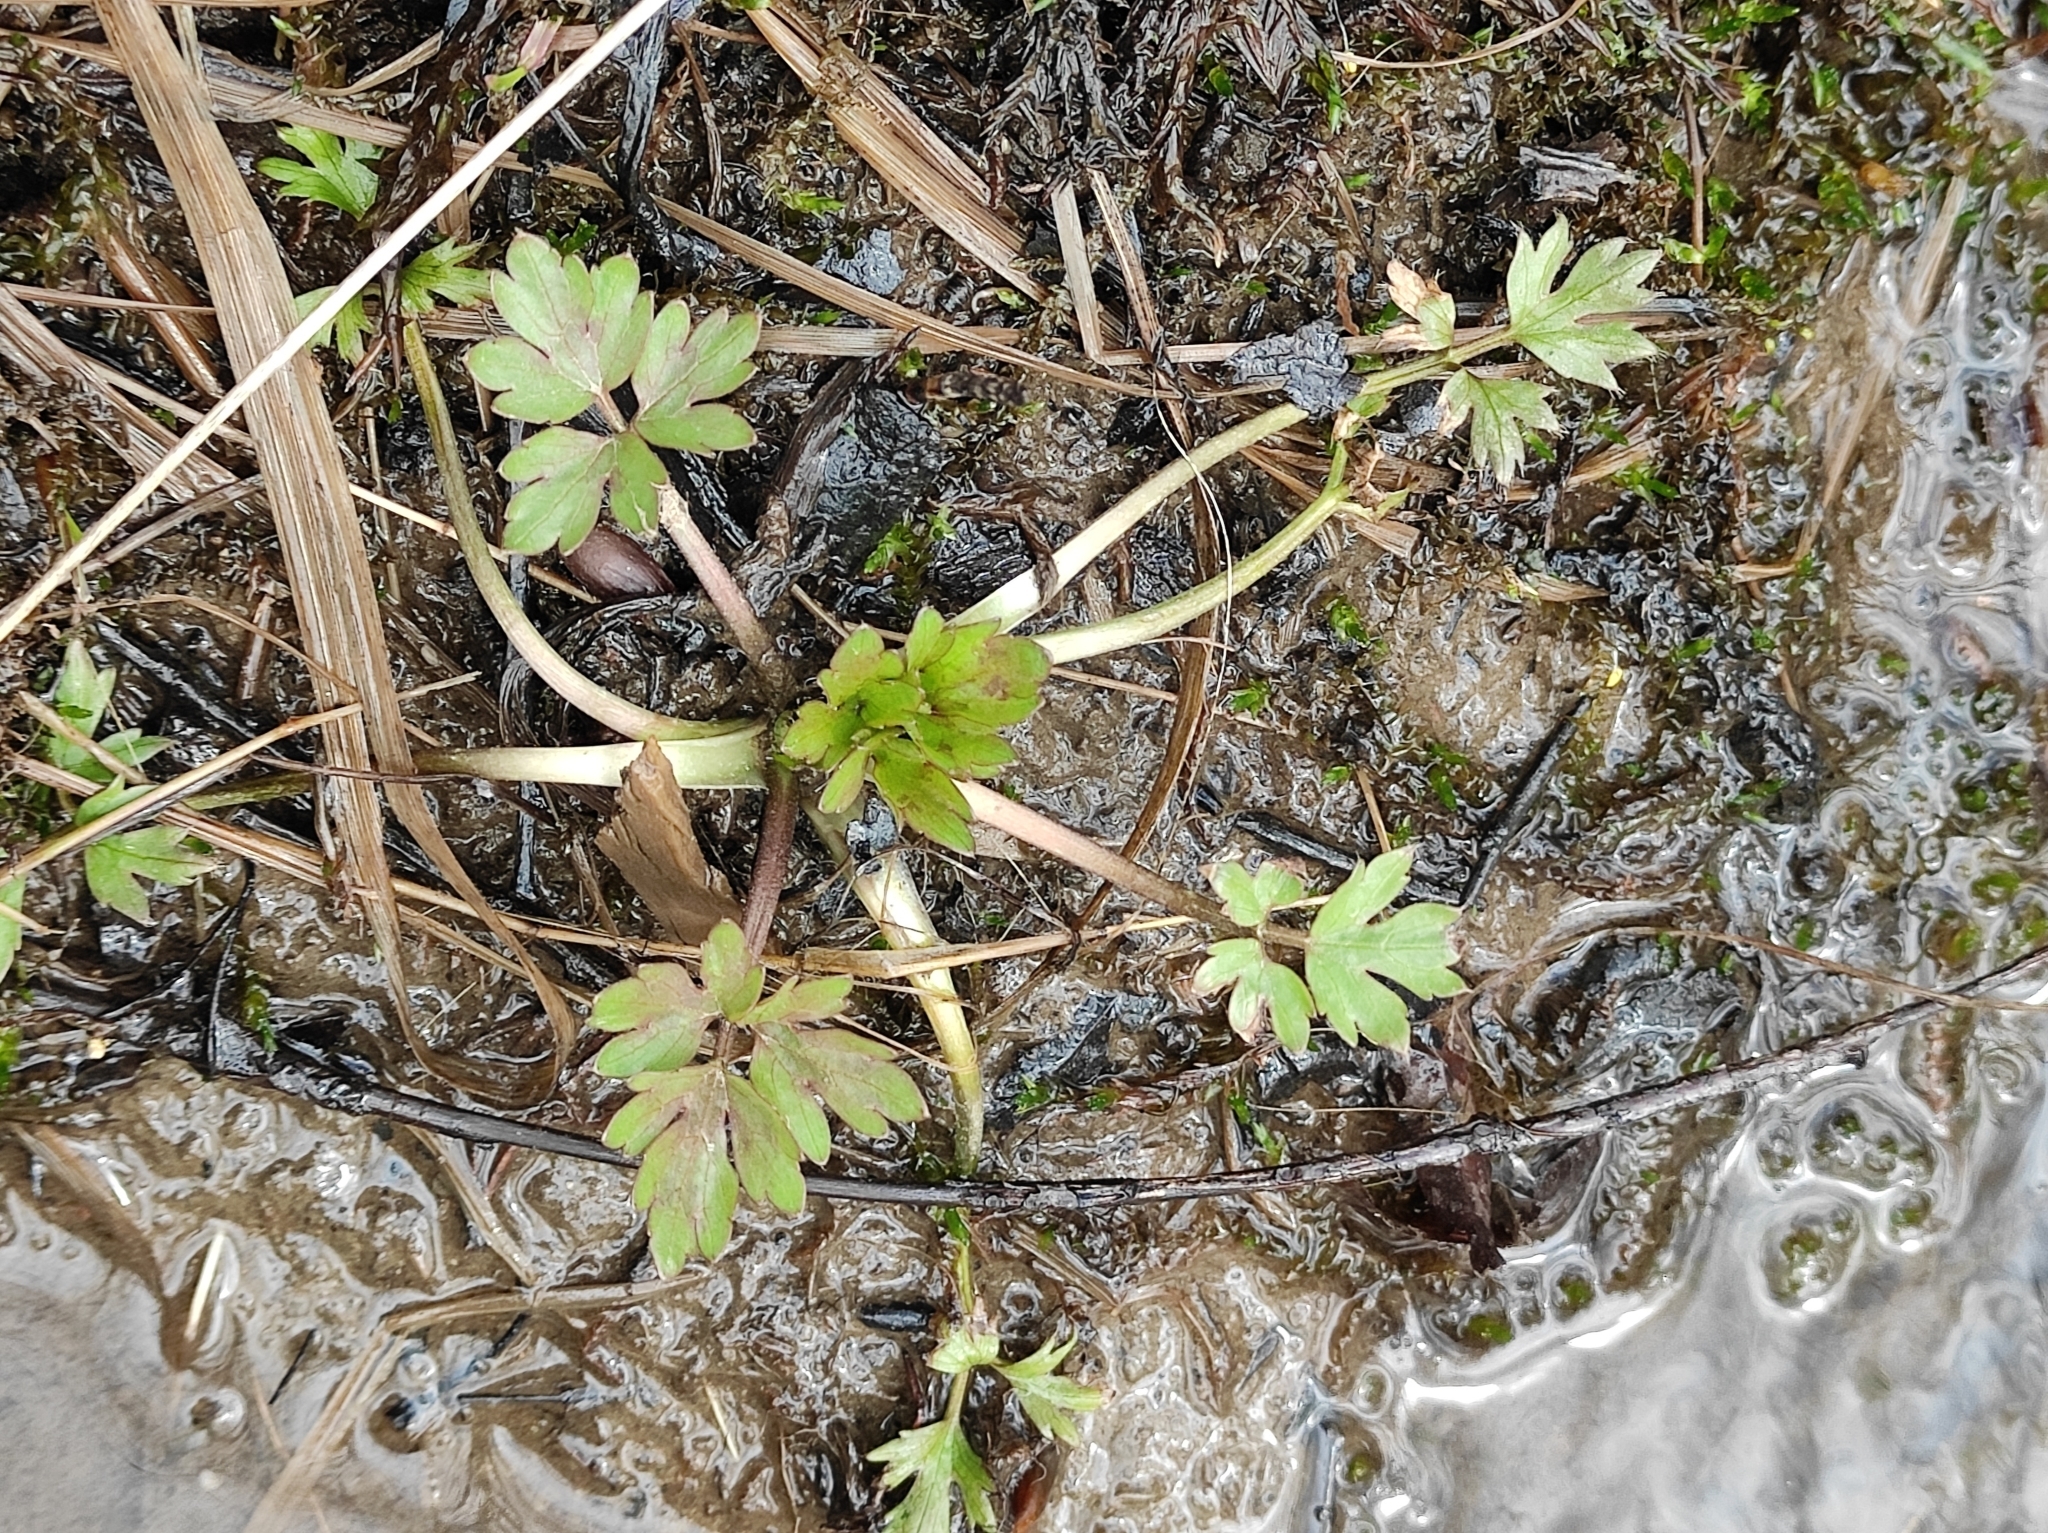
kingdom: Plantae
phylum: Tracheophyta
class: Magnoliopsida
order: Ranunculales
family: Ranunculaceae
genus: Ranunculus
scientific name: Ranunculus repens
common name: Creeping buttercup
